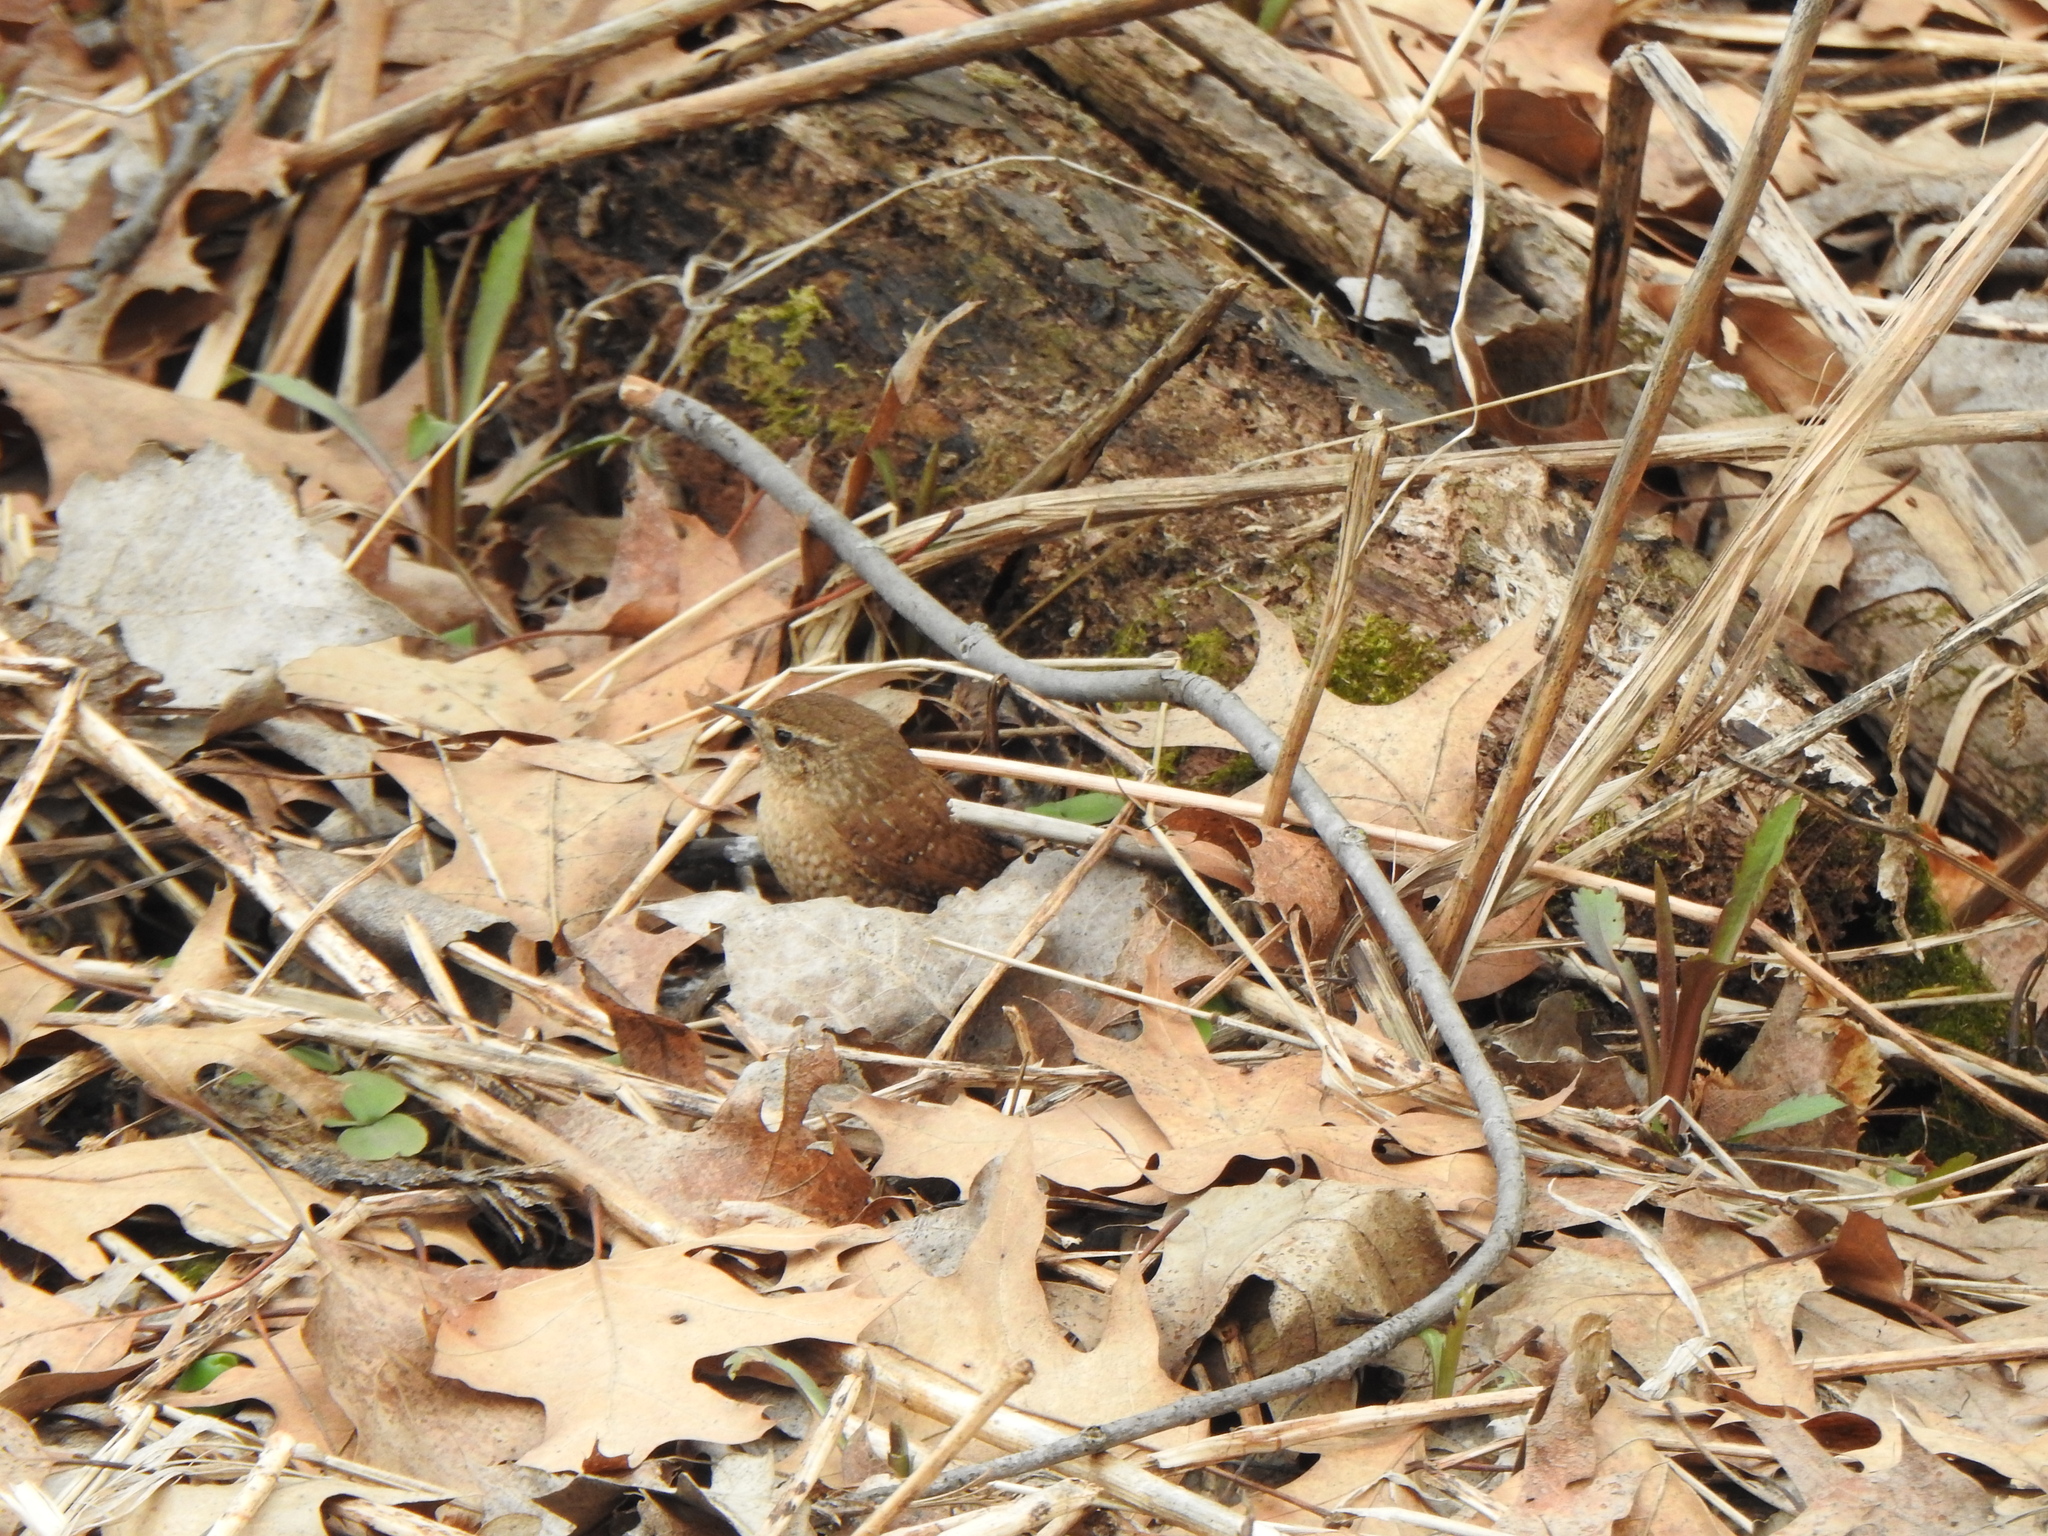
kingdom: Animalia
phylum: Chordata
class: Aves
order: Passeriformes
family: Troglodytidae
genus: Troglodytes
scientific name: Troglodytes hiemalis
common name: Winter wren
